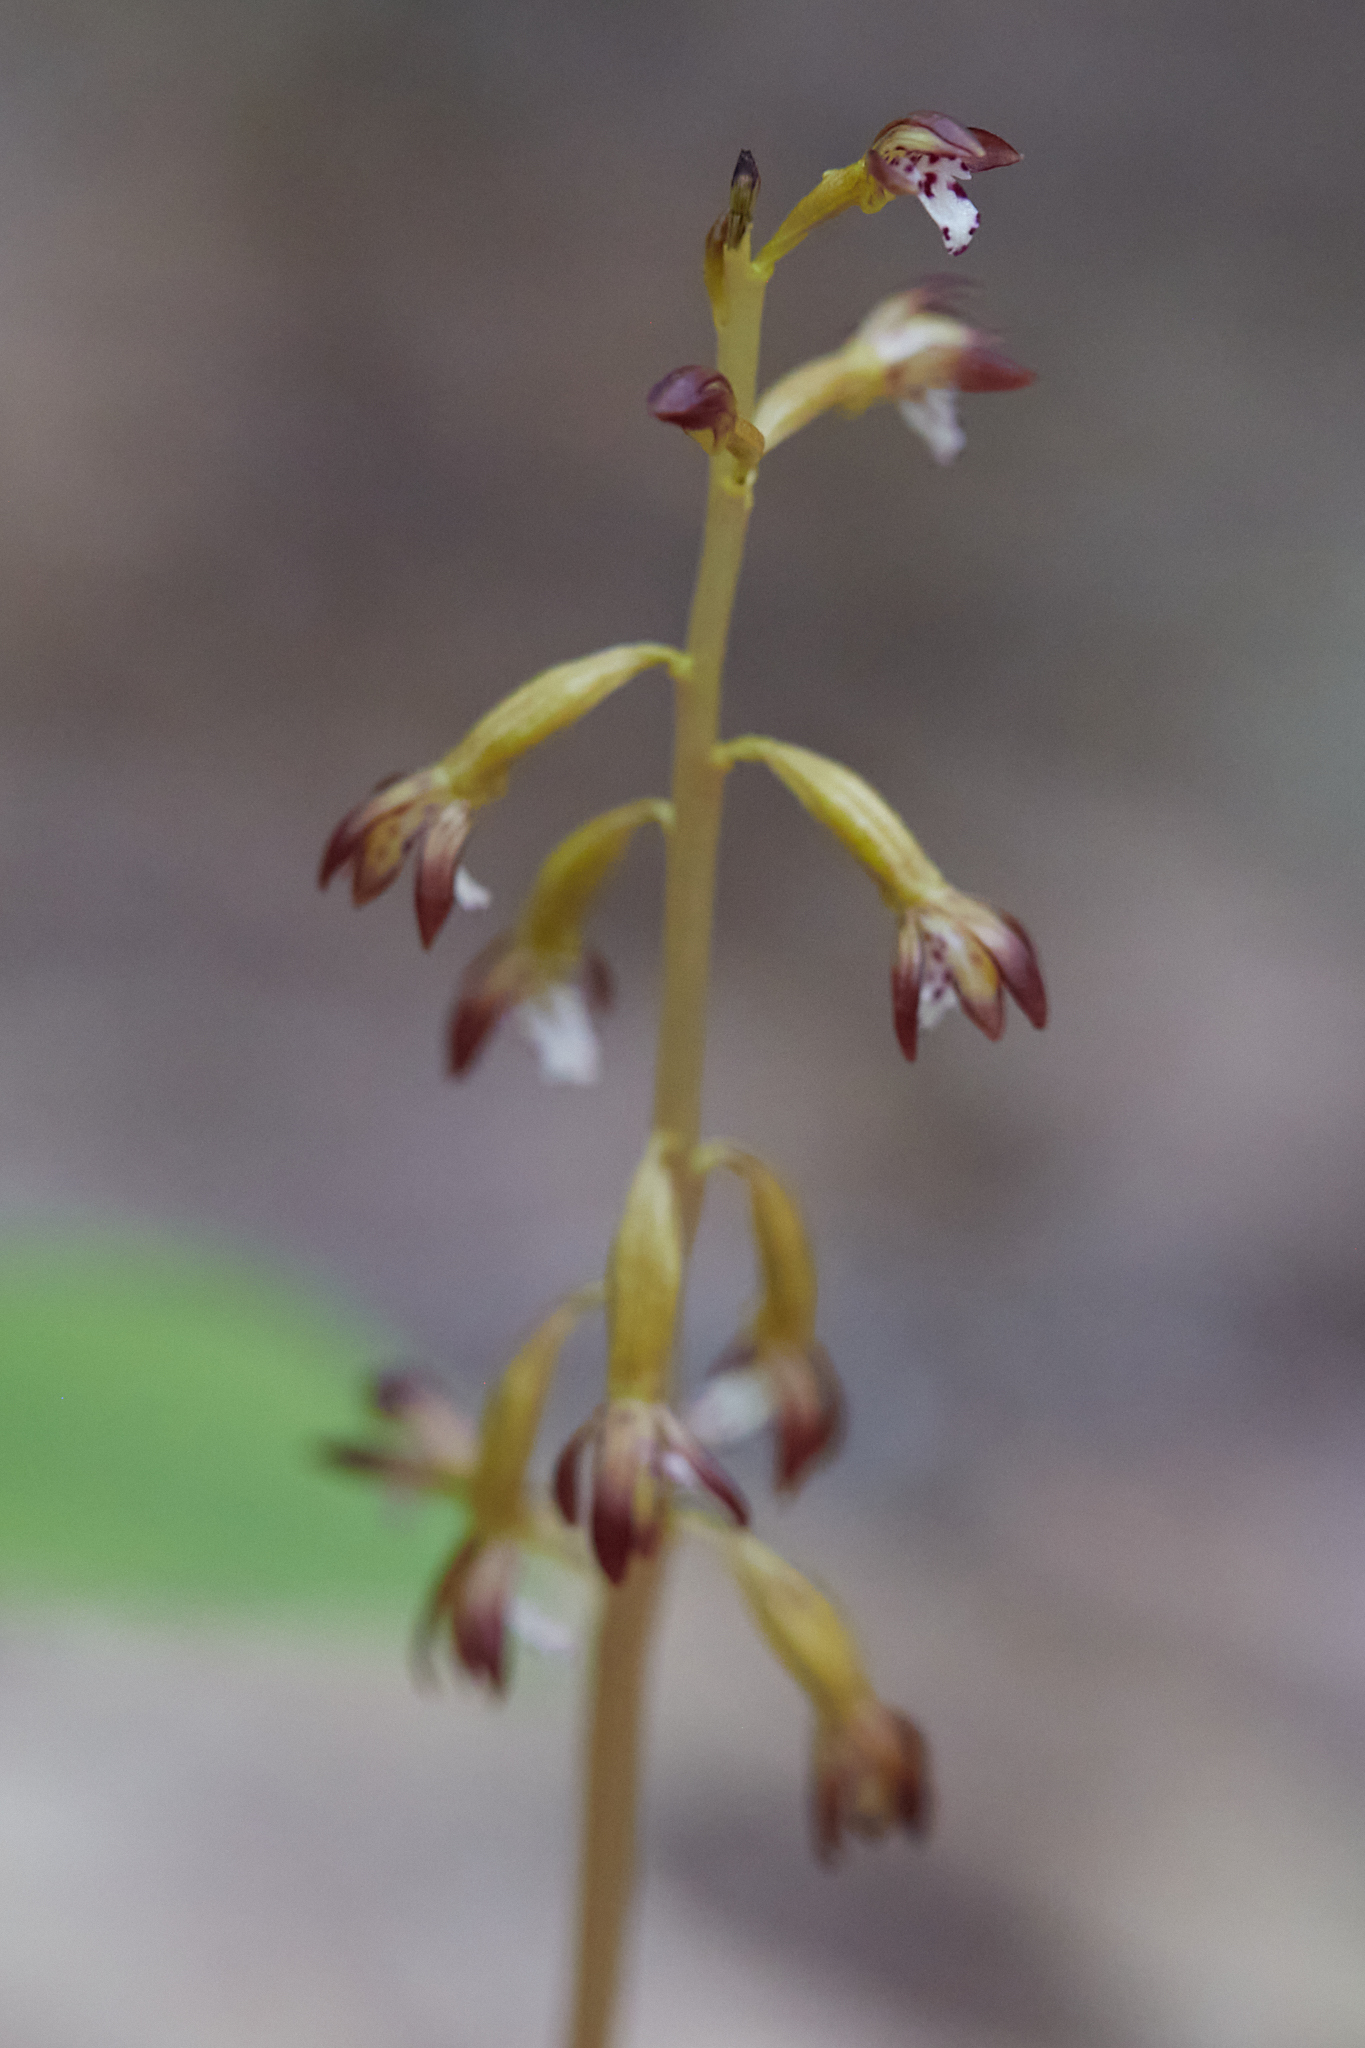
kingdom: Plantae
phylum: Tracheophyta
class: Liliopsida
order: Asparagales
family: Orchidaceae
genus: Corallorhiza
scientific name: Corallorhiza maculata
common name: Spotted coralroot
